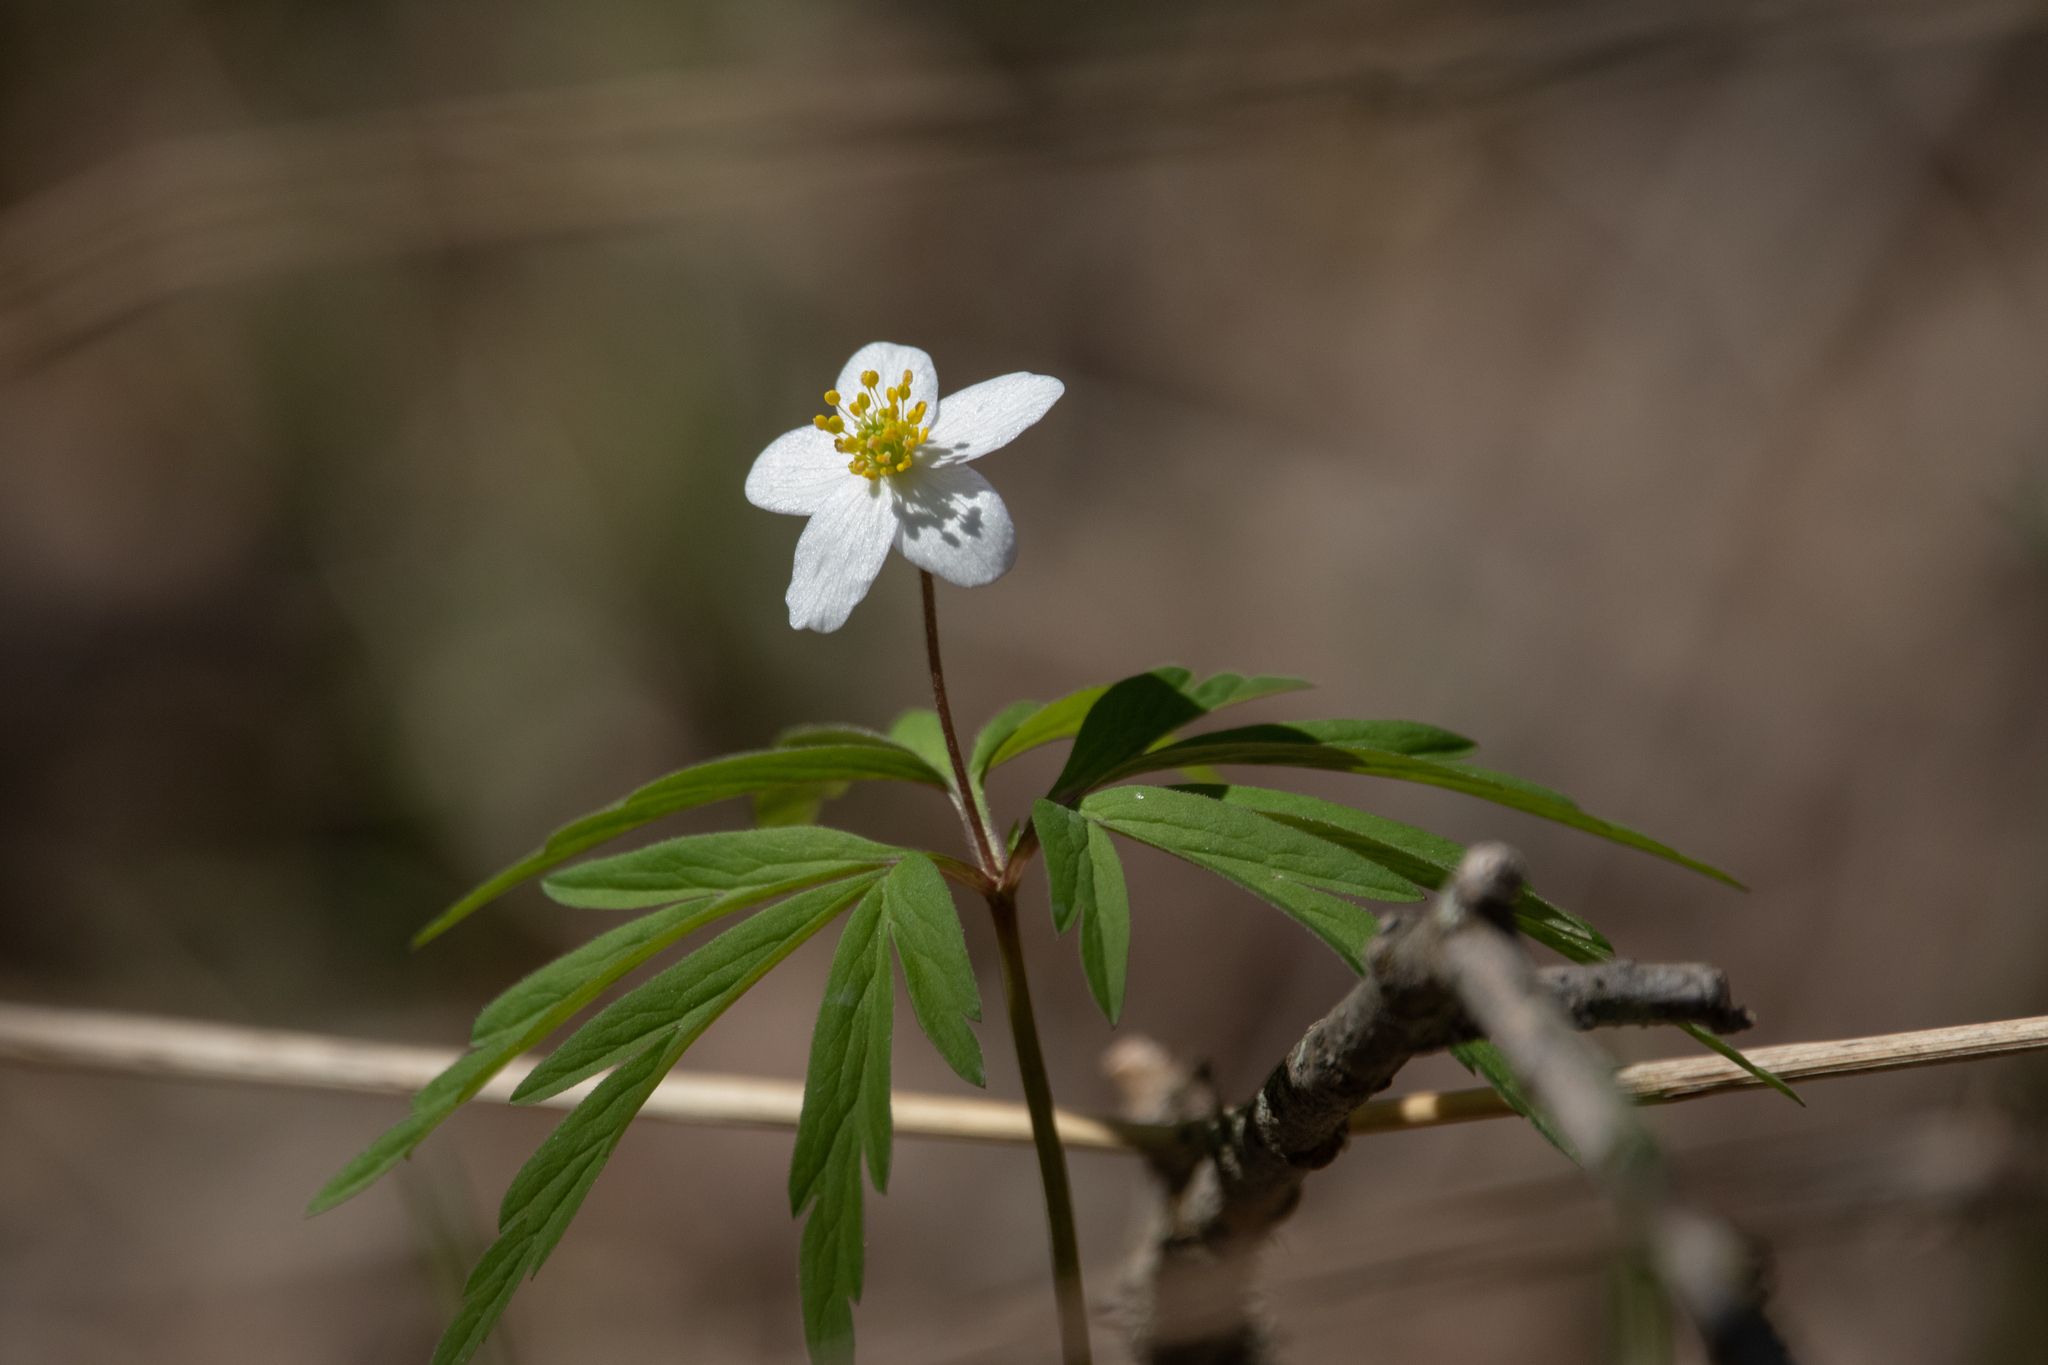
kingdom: Plantae
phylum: Tracheophyta
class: Magnoliopsida
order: Ranunculales
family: Ranunculaceae
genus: Anemone
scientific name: Anemone caerulea
